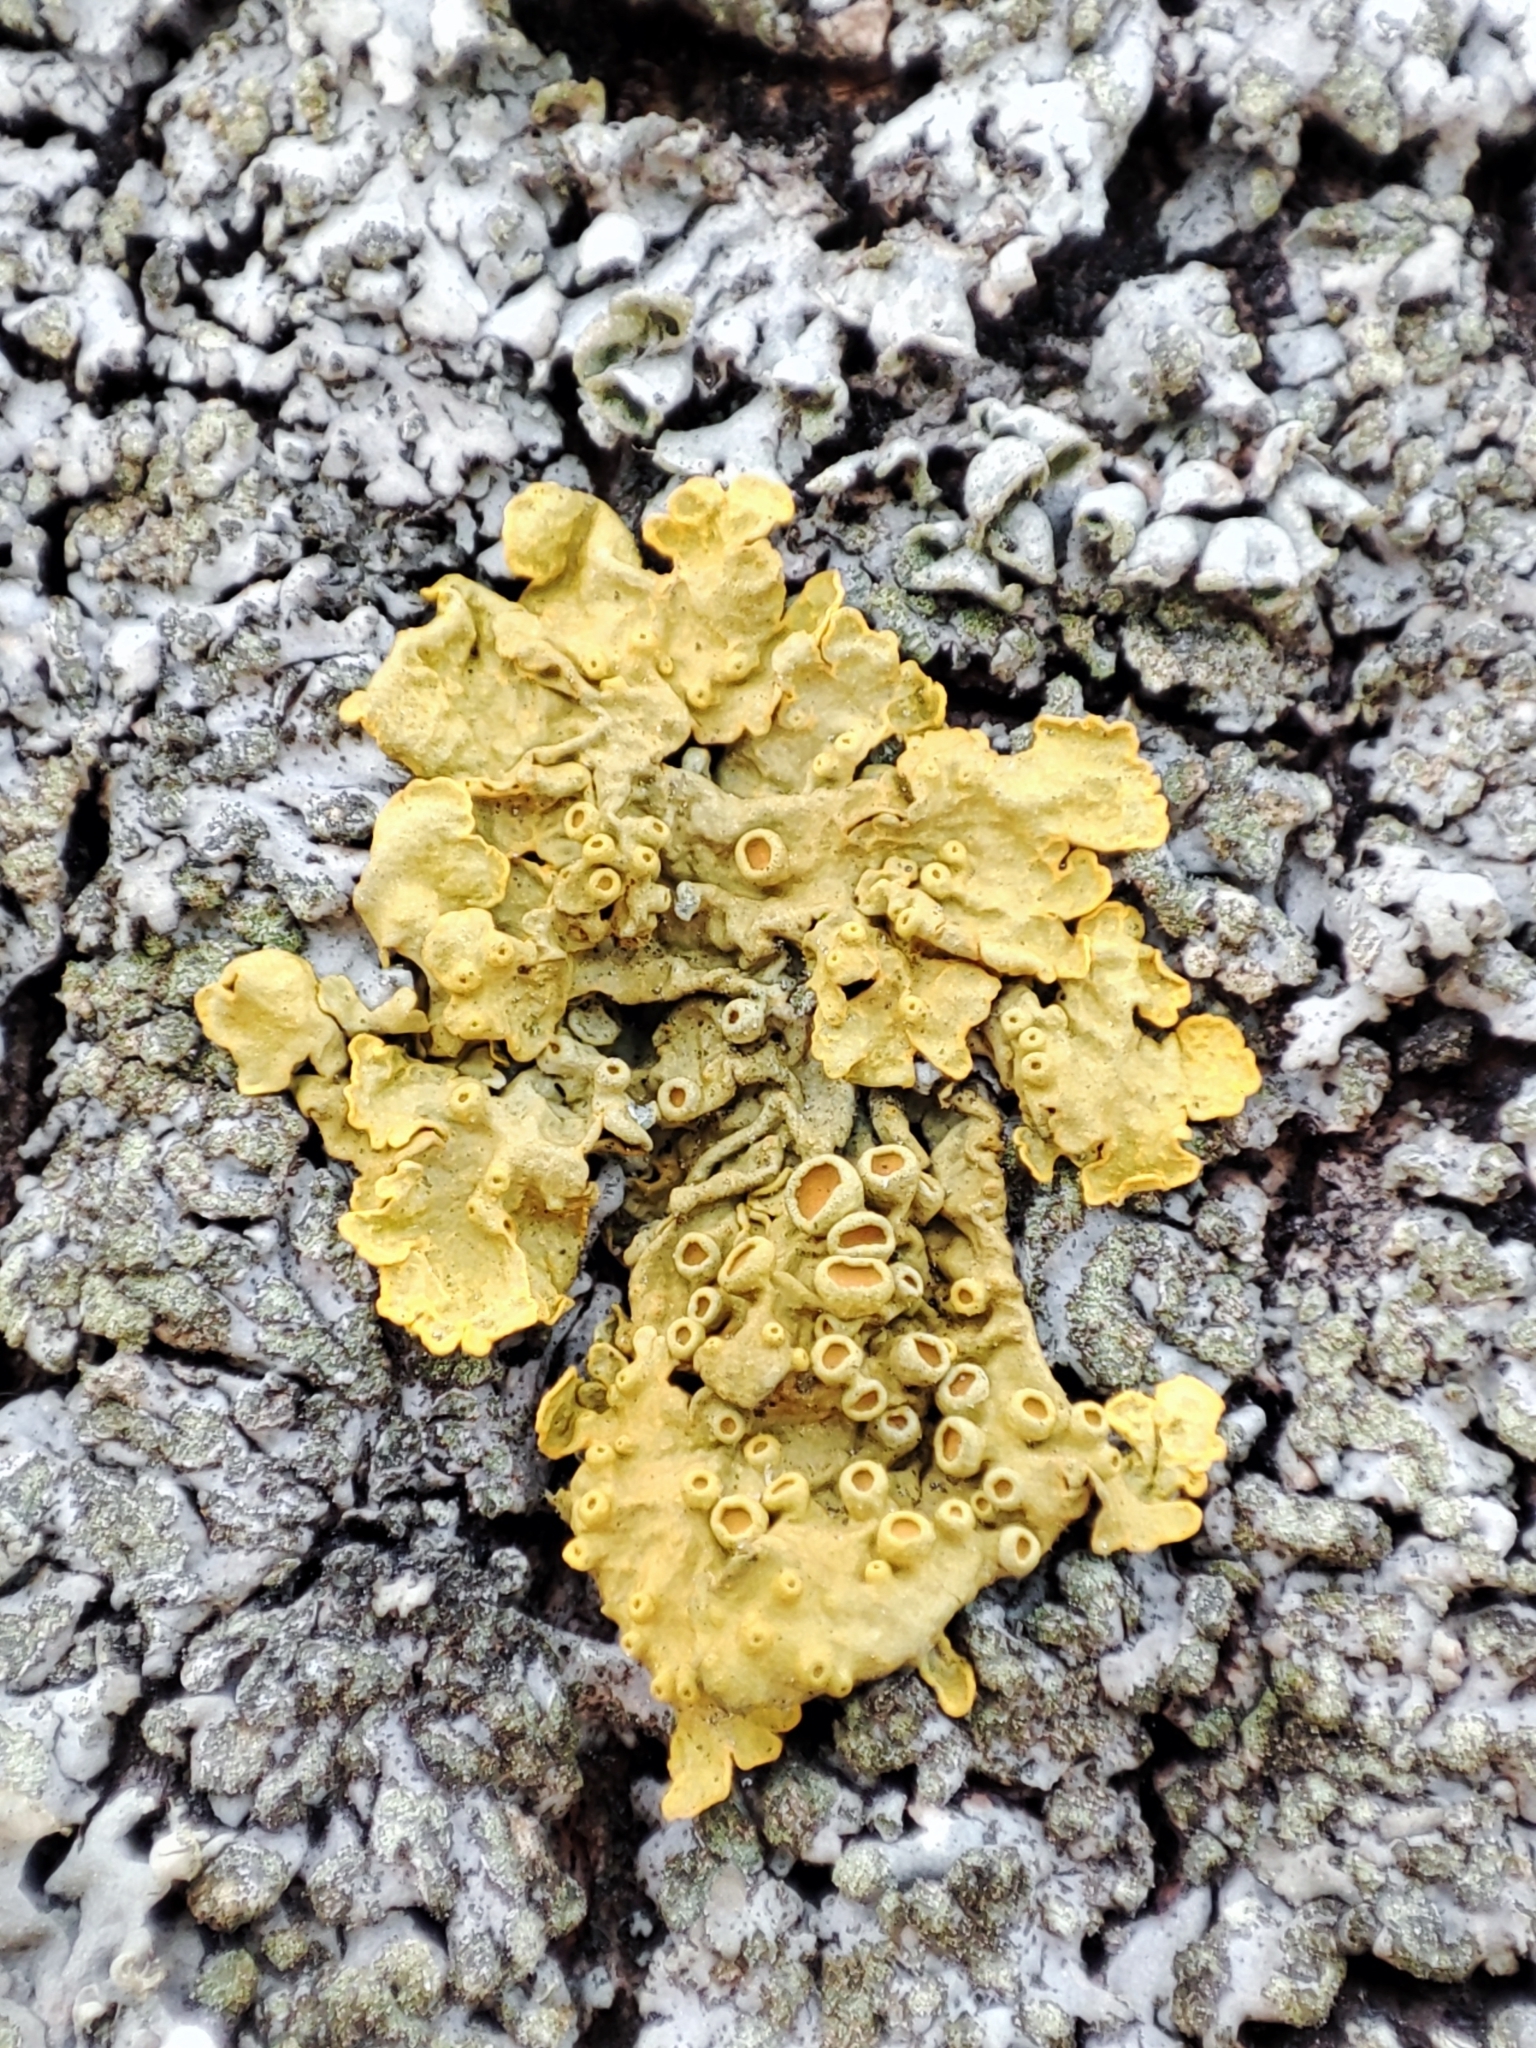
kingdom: Fungi
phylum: Ascomycota
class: Lecanoromycetes
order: Teloschistales
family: Teloschistaceae
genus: Xanthoria
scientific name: Xanthoria parietina
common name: Common orange lichen
